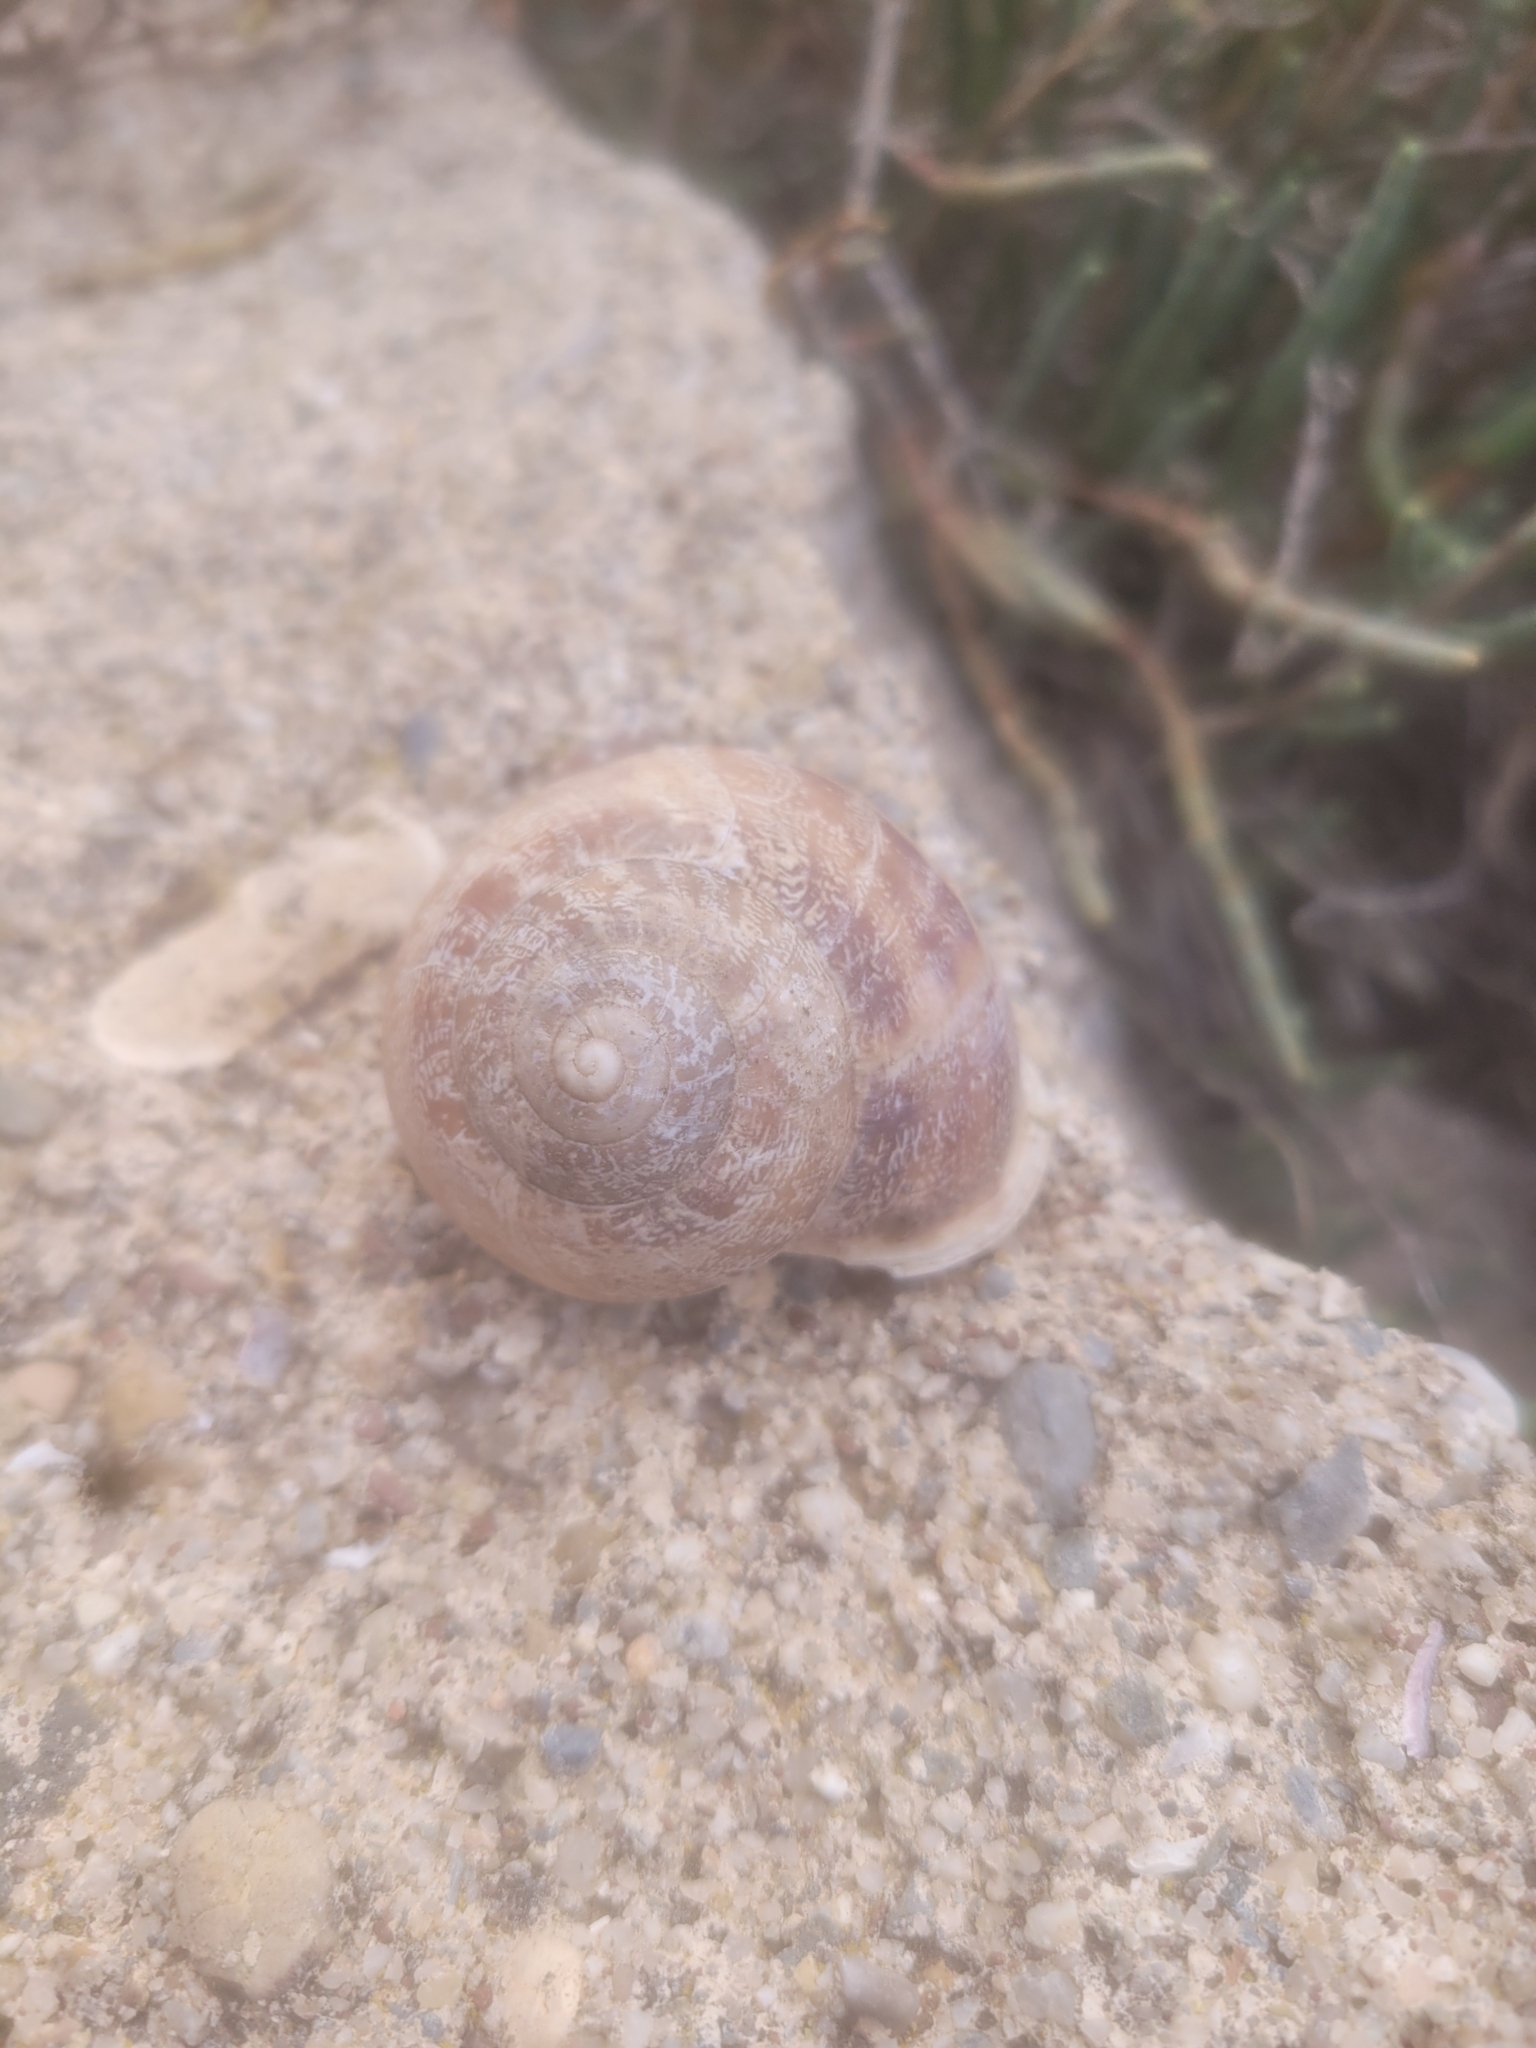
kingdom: Animalia
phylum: Mollusca
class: Gastropoda
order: Stylommatophora
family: Helicidae
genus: Eobania
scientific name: Eobania vermiculata
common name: Chocolateband snail
